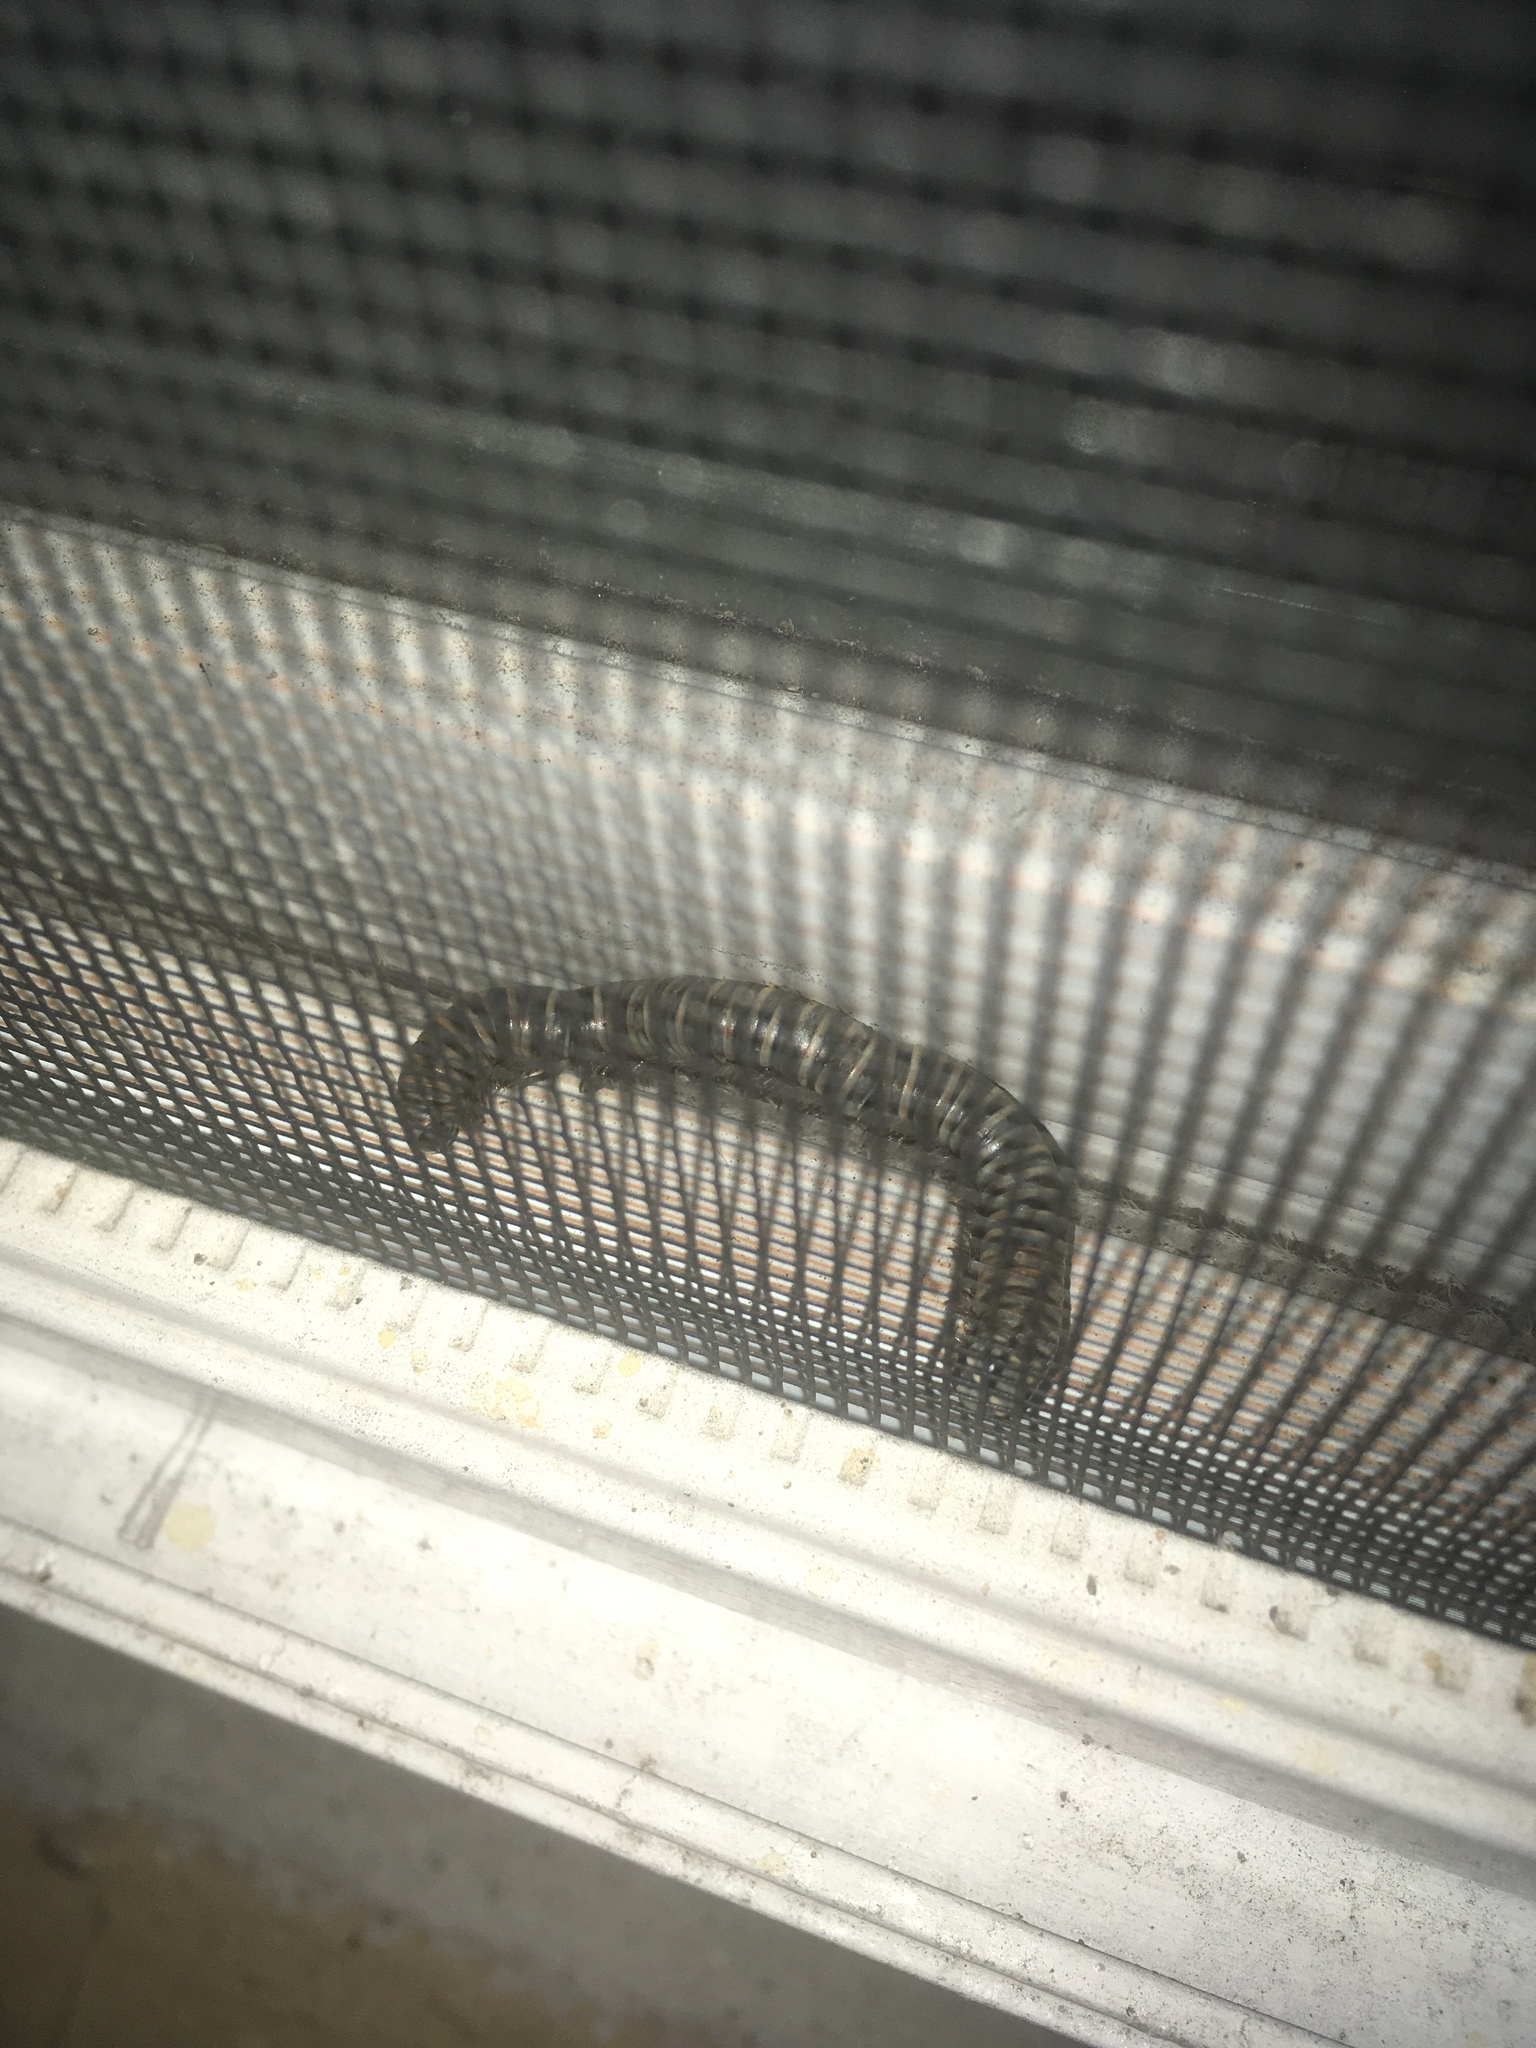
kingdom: Animalia
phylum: Arthropoda
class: Diplopoda
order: Spirobolida
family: Rhinocricidae
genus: Anadenobolus
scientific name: Anadenobolus monilicornis
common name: Caribbean millipede
